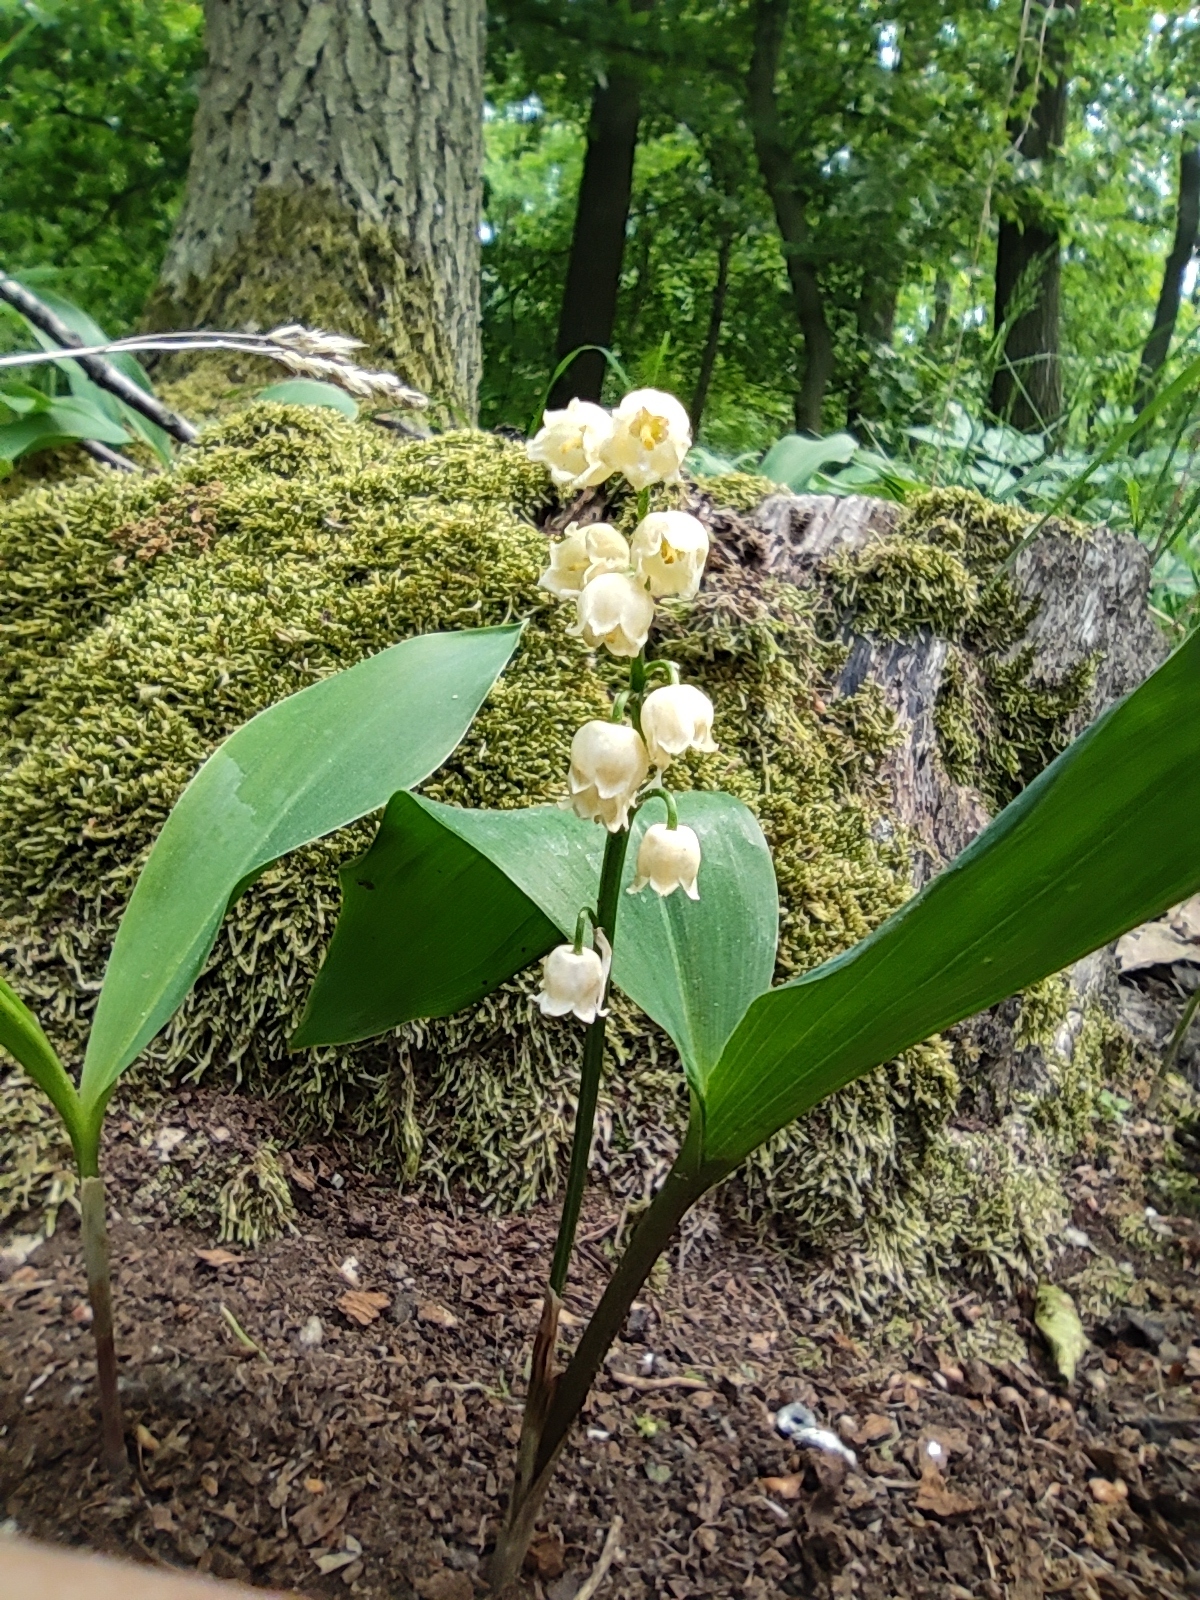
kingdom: Plantae
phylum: Tracheophyta
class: Liliopsida
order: Asparagales
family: Asparagaceae
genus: Convallaria
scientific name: Convallaria majalis
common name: Lily-of-the-valley
